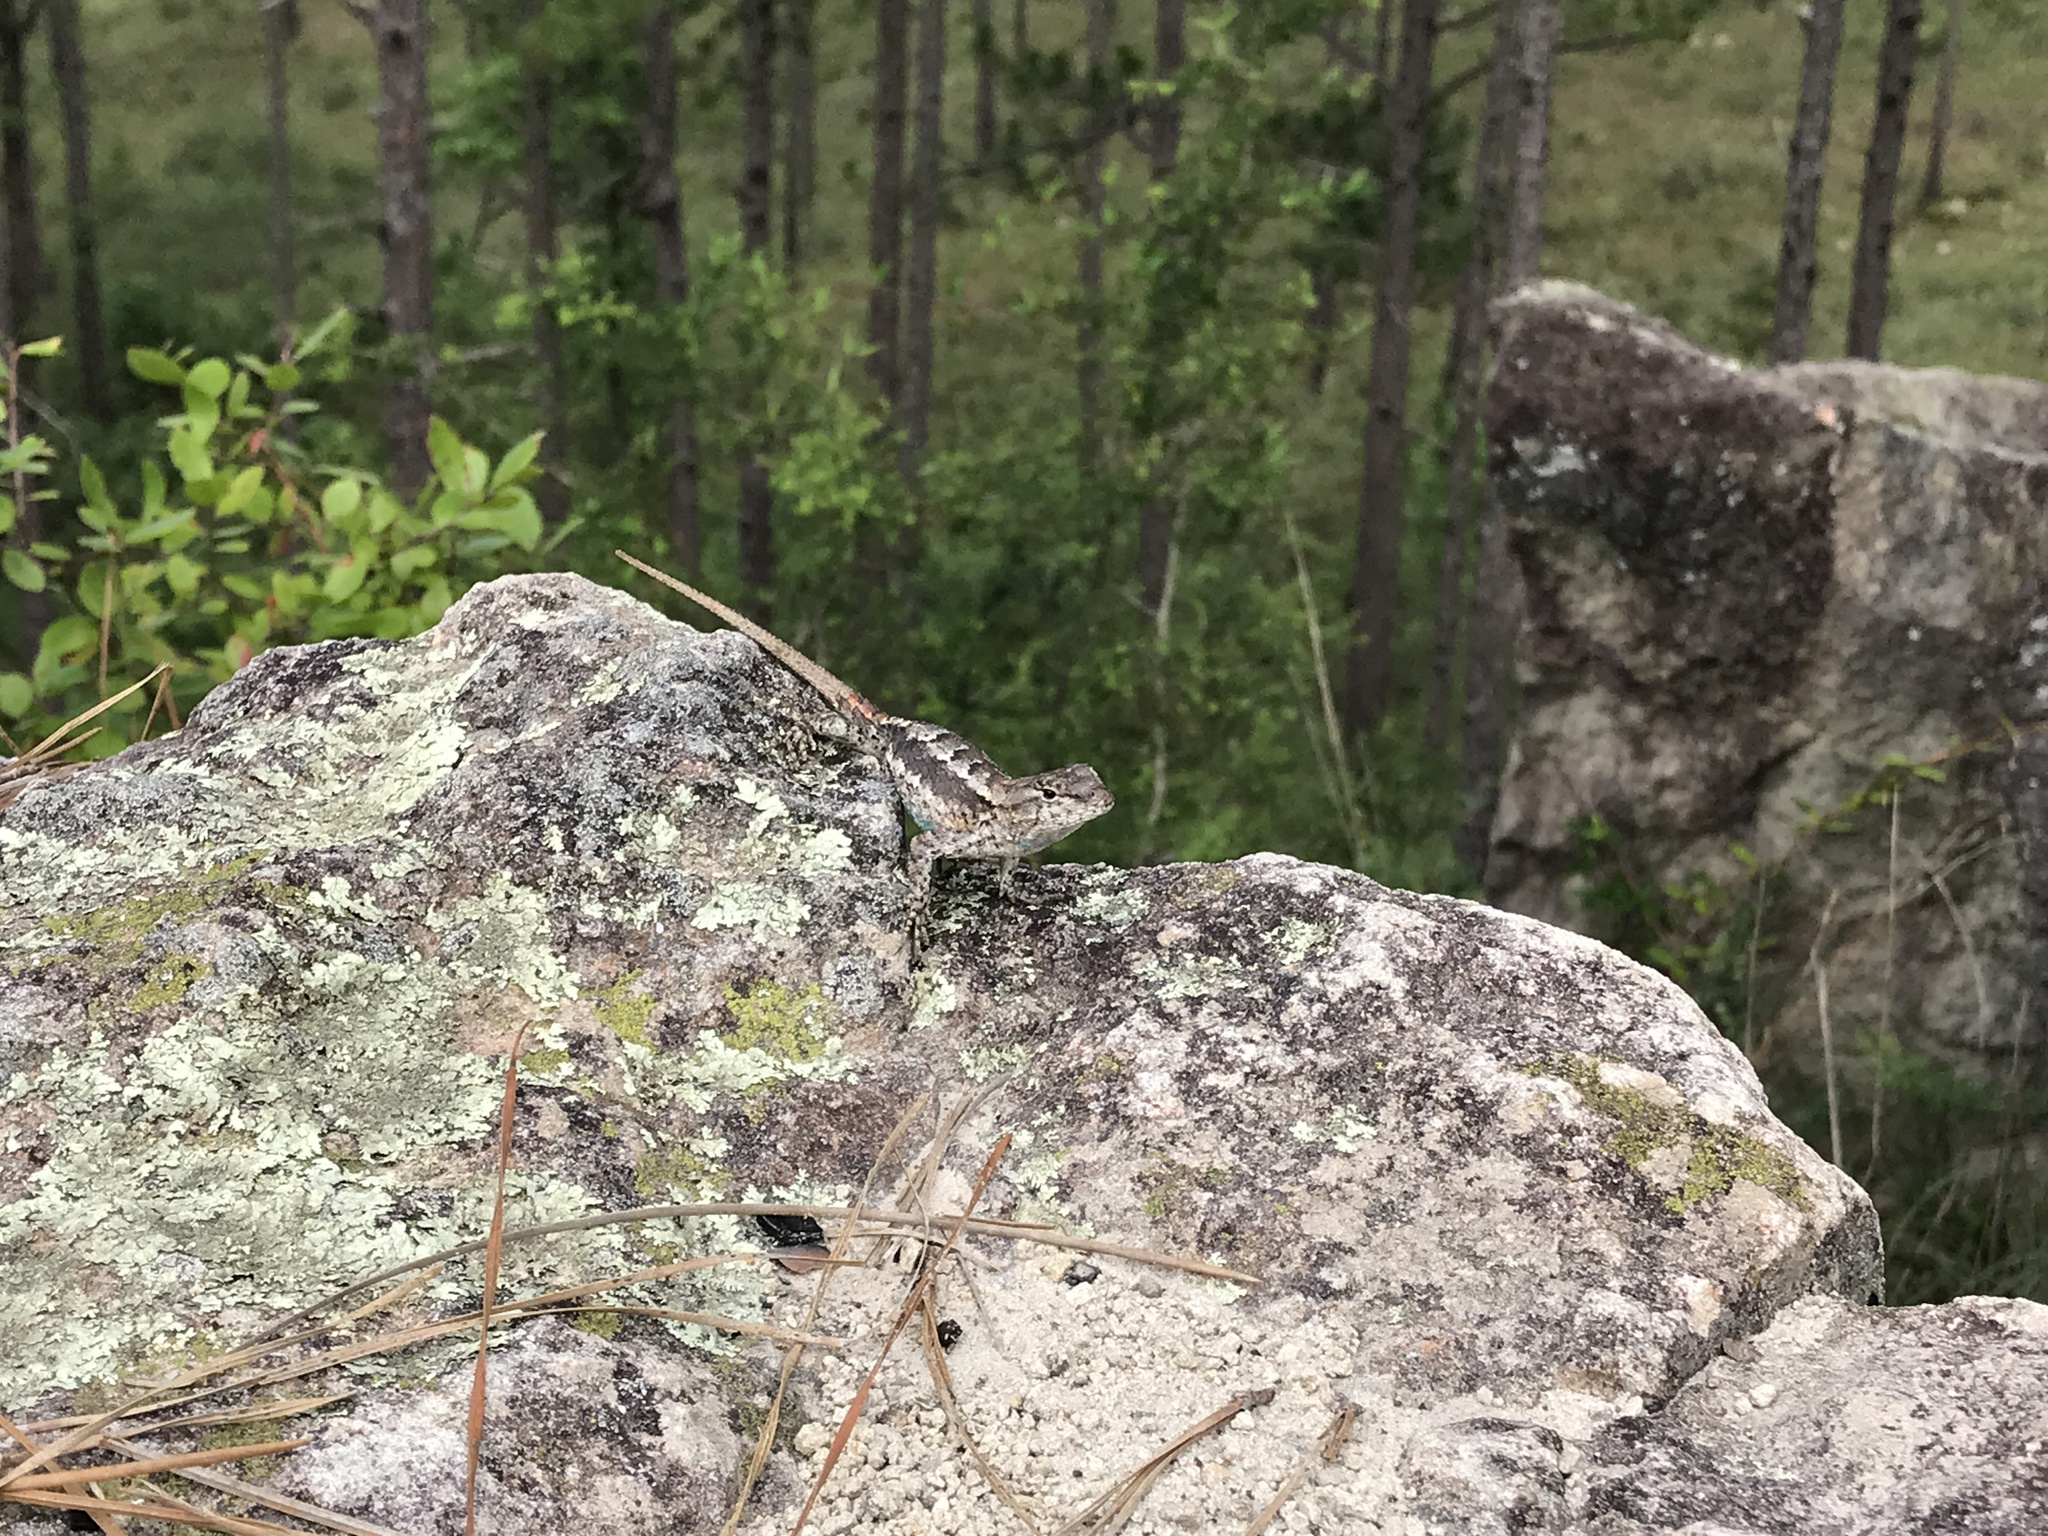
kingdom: Animalia
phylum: Chordata
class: Squamata
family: Phrynosomatidae
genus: Sceloporus
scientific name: Sceloporus consobrinus
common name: Southern prairie lizard
